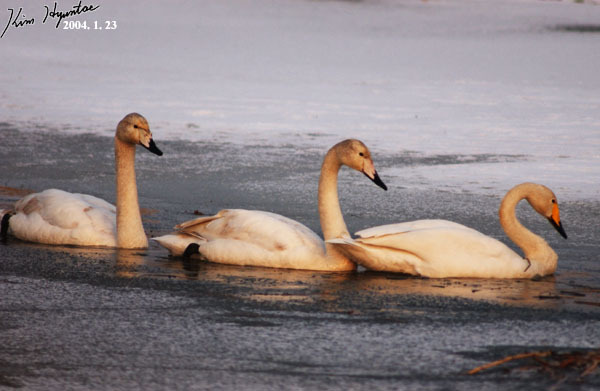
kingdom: Animalia
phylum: Chordata
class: Aves
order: Anseriformes
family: Anatidae
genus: Cygnus
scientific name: Cygnus cygnus
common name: Whooper swan
